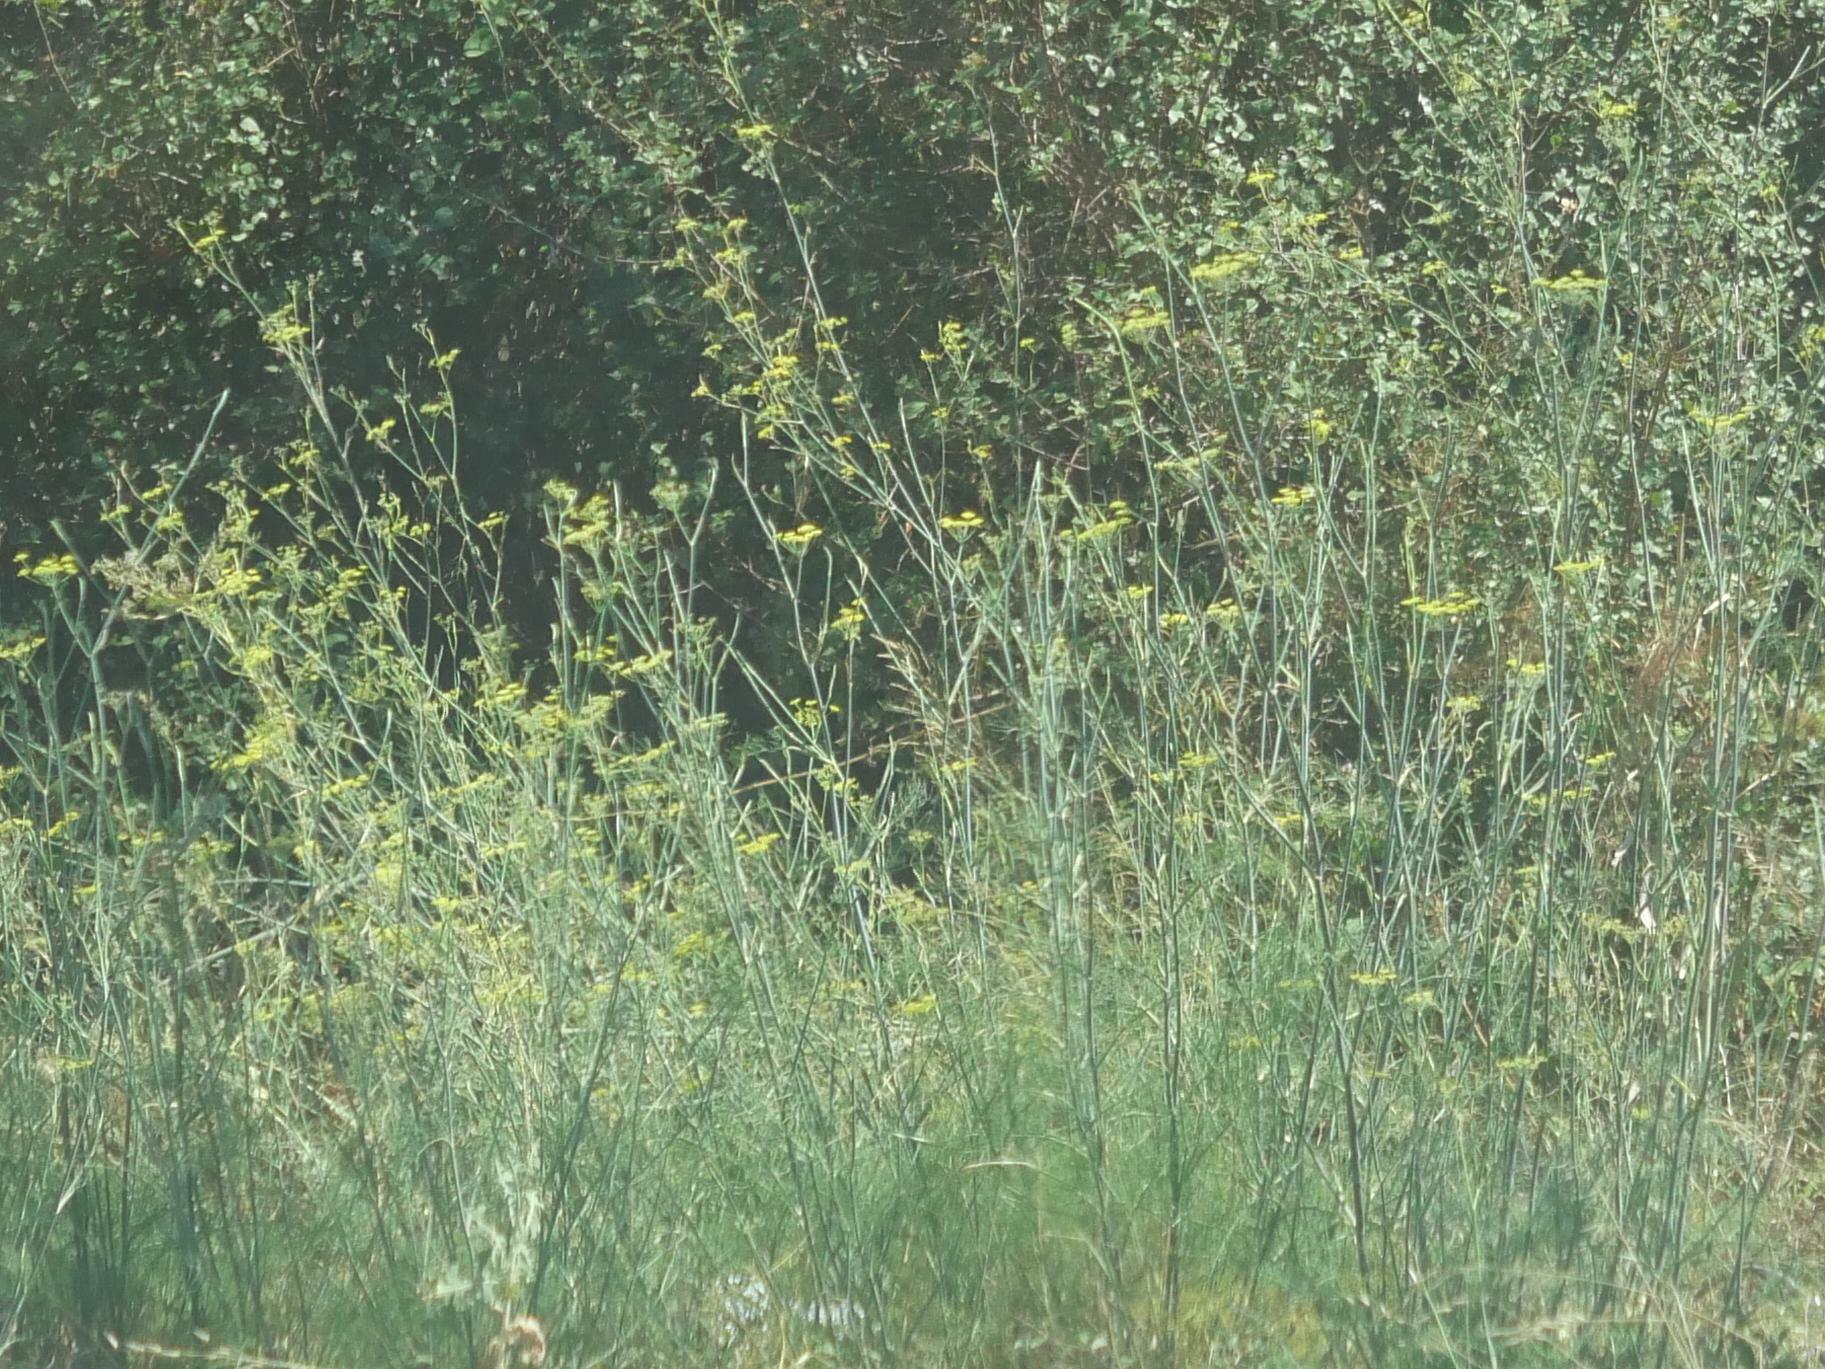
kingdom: Plantae
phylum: Tracheophyta
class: Magnoliopsida
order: Apiales
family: Apiaceae
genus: Foeniculum
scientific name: Foeniculum vulgare
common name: Fennel
